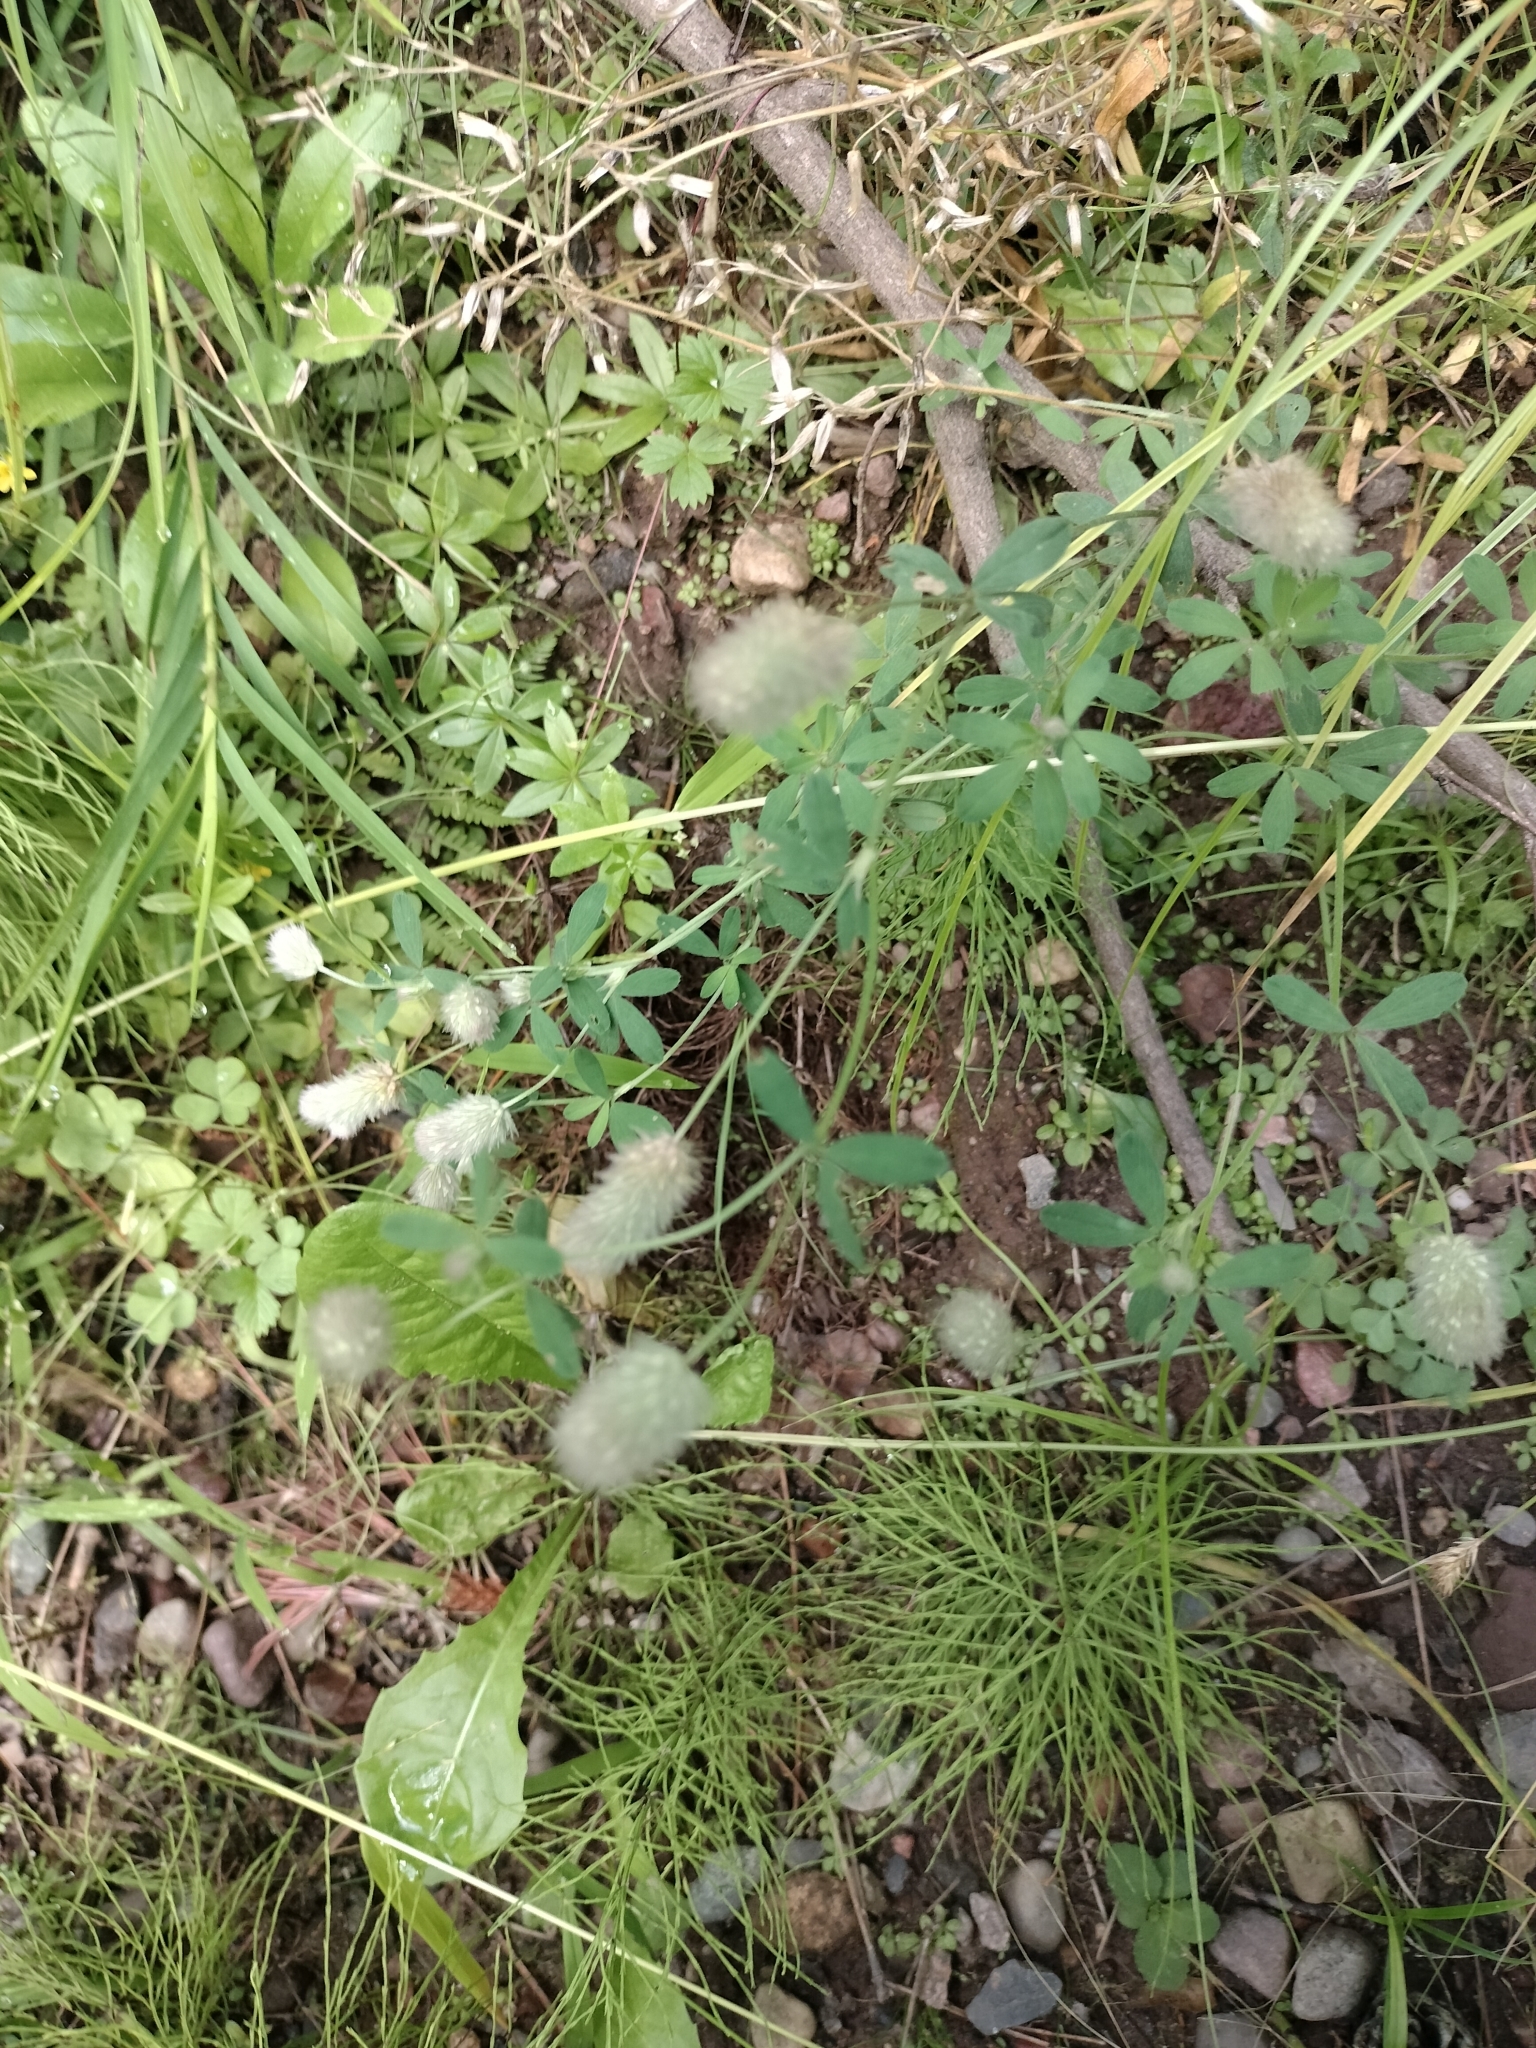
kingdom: Plantae
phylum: Tracheophyta
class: Magnoliopsida
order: Fabales
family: Fabaceae
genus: Trifolium
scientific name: Trifolium arvense
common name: Hare's-foot clover
